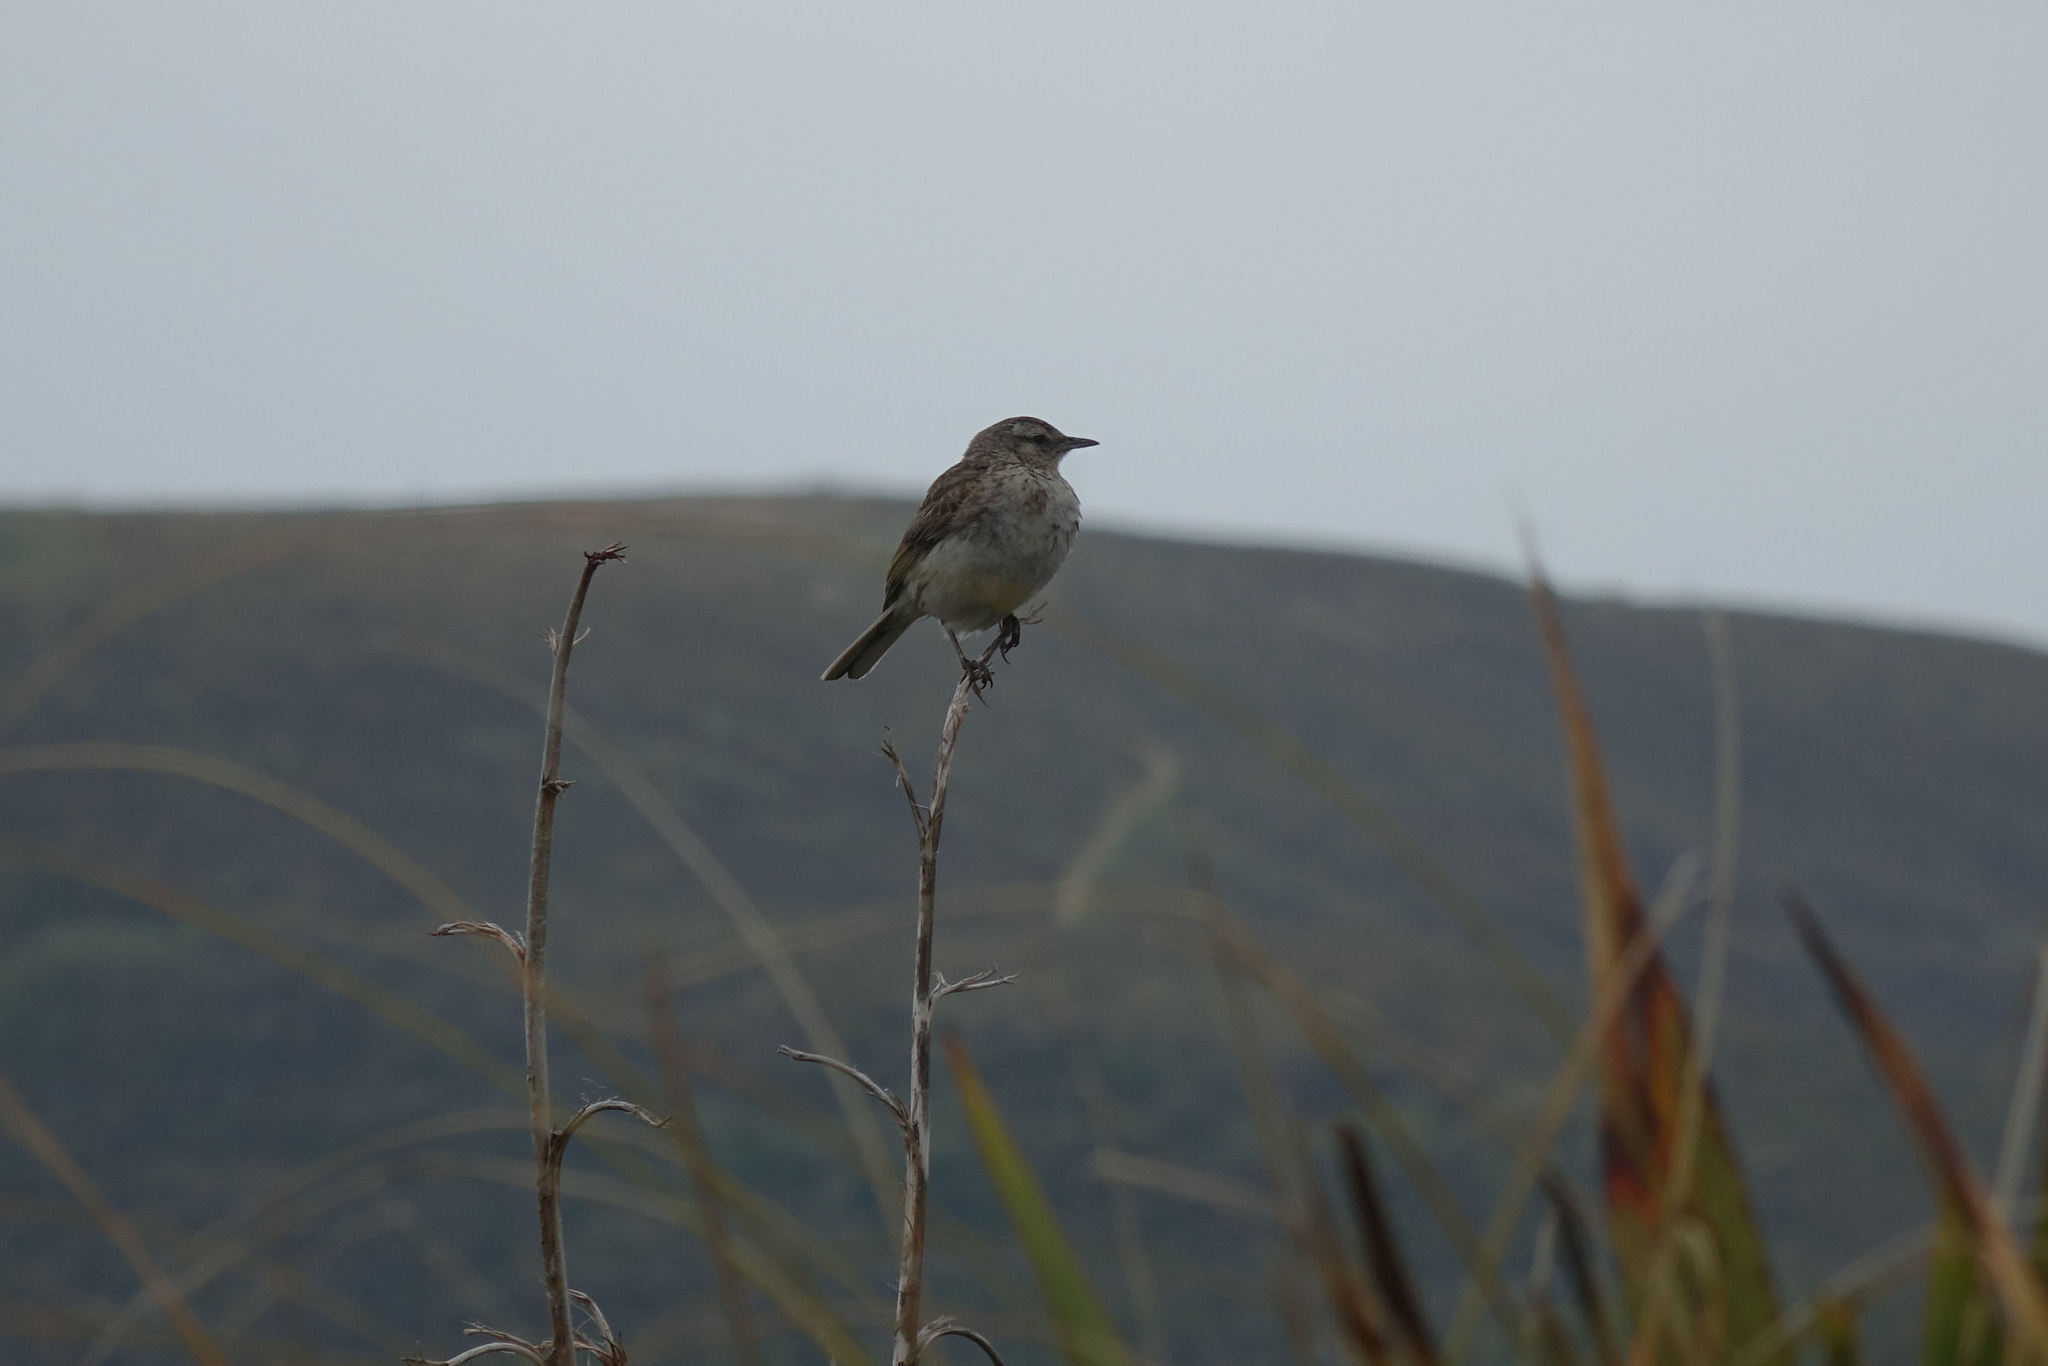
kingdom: Animalia
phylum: Chordata
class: Aves
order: Passeriformes
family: Motacillidae
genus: Anthus
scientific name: Anthus novaeseelandiae
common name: New zealand pipit
